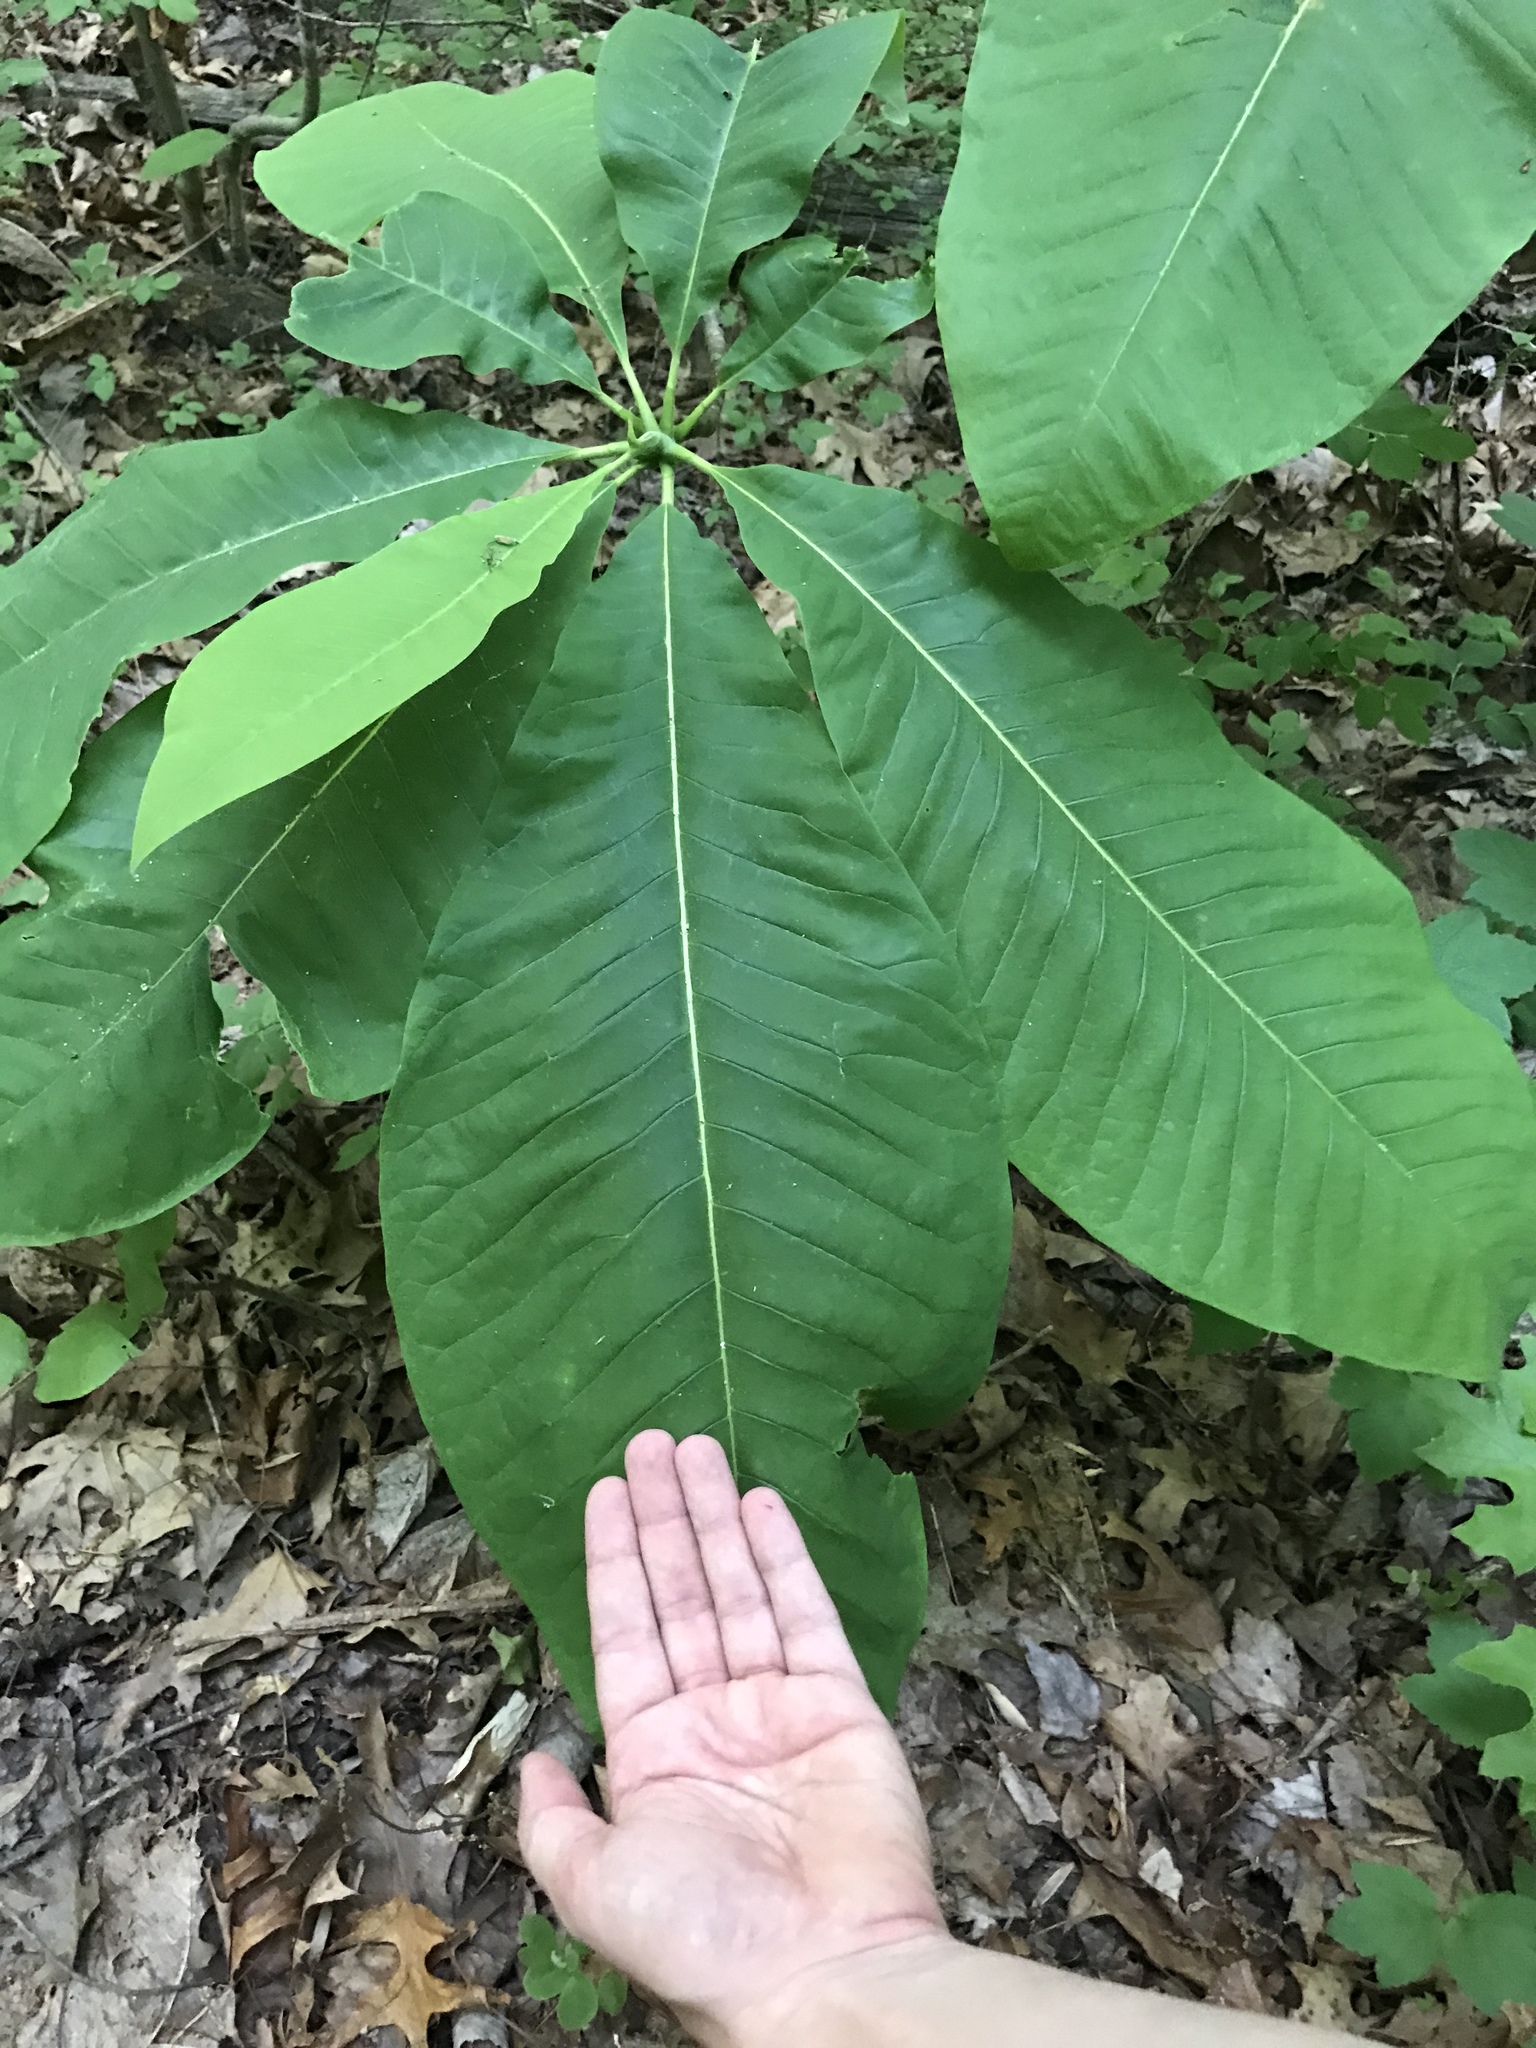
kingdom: Plantae
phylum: Tracheophyta
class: Magnoliopsida
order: Magnoliales
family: Magnoliaceae
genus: Magnolia
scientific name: Magnolia tripetala
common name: Umbrella magnolia
